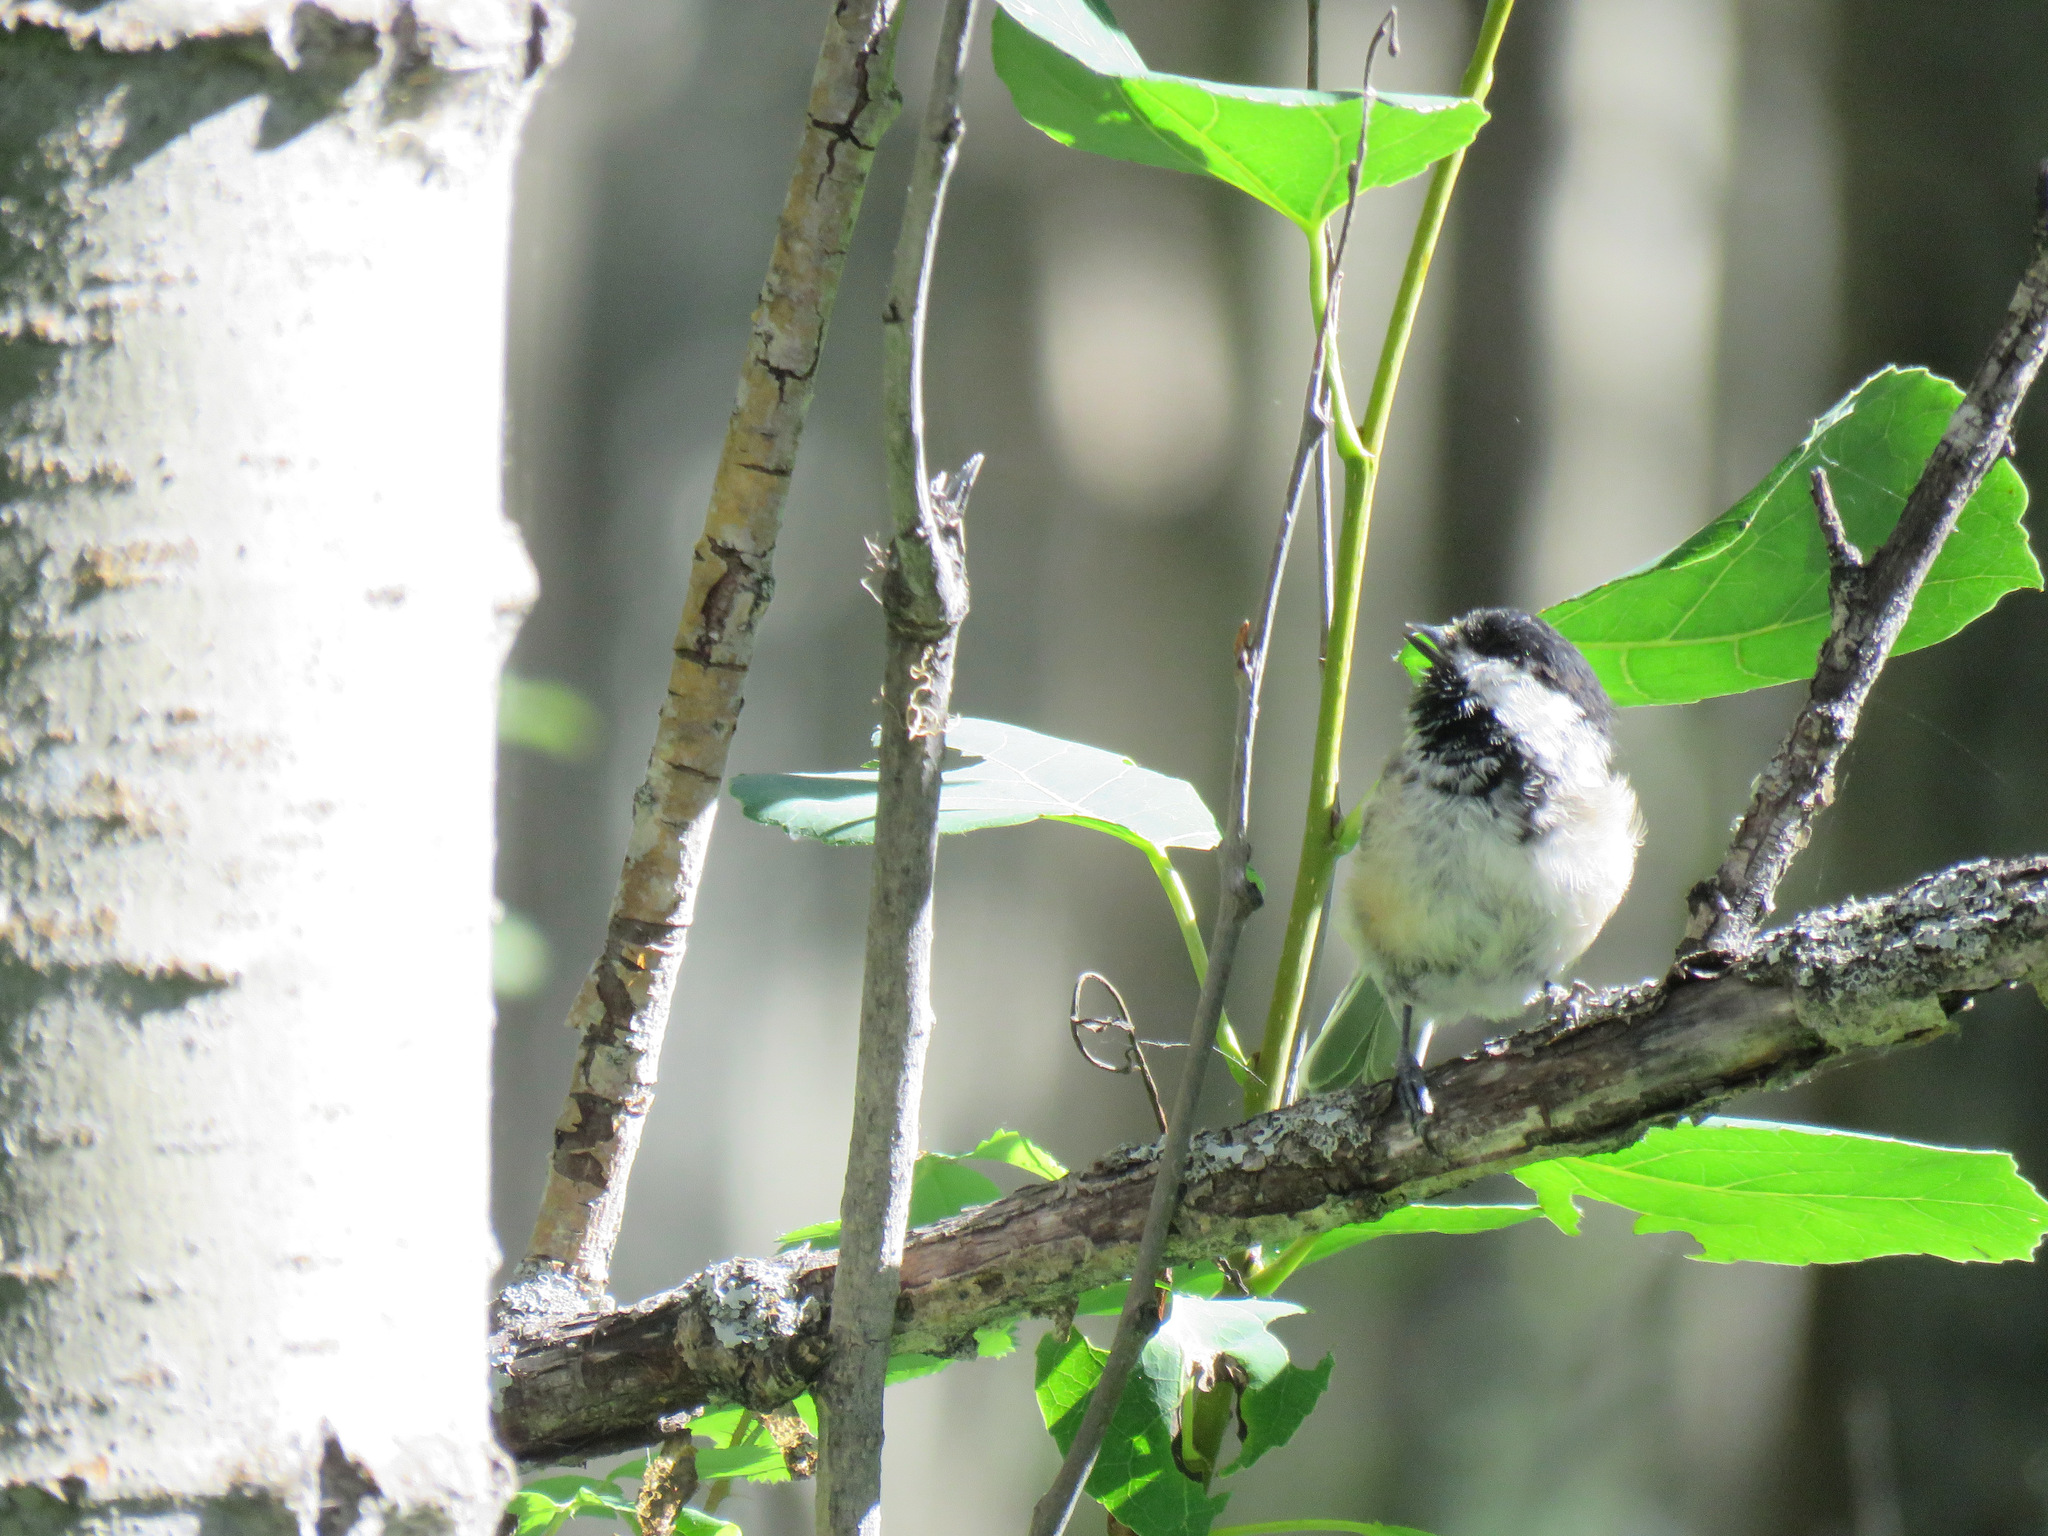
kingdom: Animalia
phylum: Chordata
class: Aves
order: Passeriformes
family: Paridae
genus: Poecile
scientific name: Poecile atricapillus
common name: Black-capped chickadee
